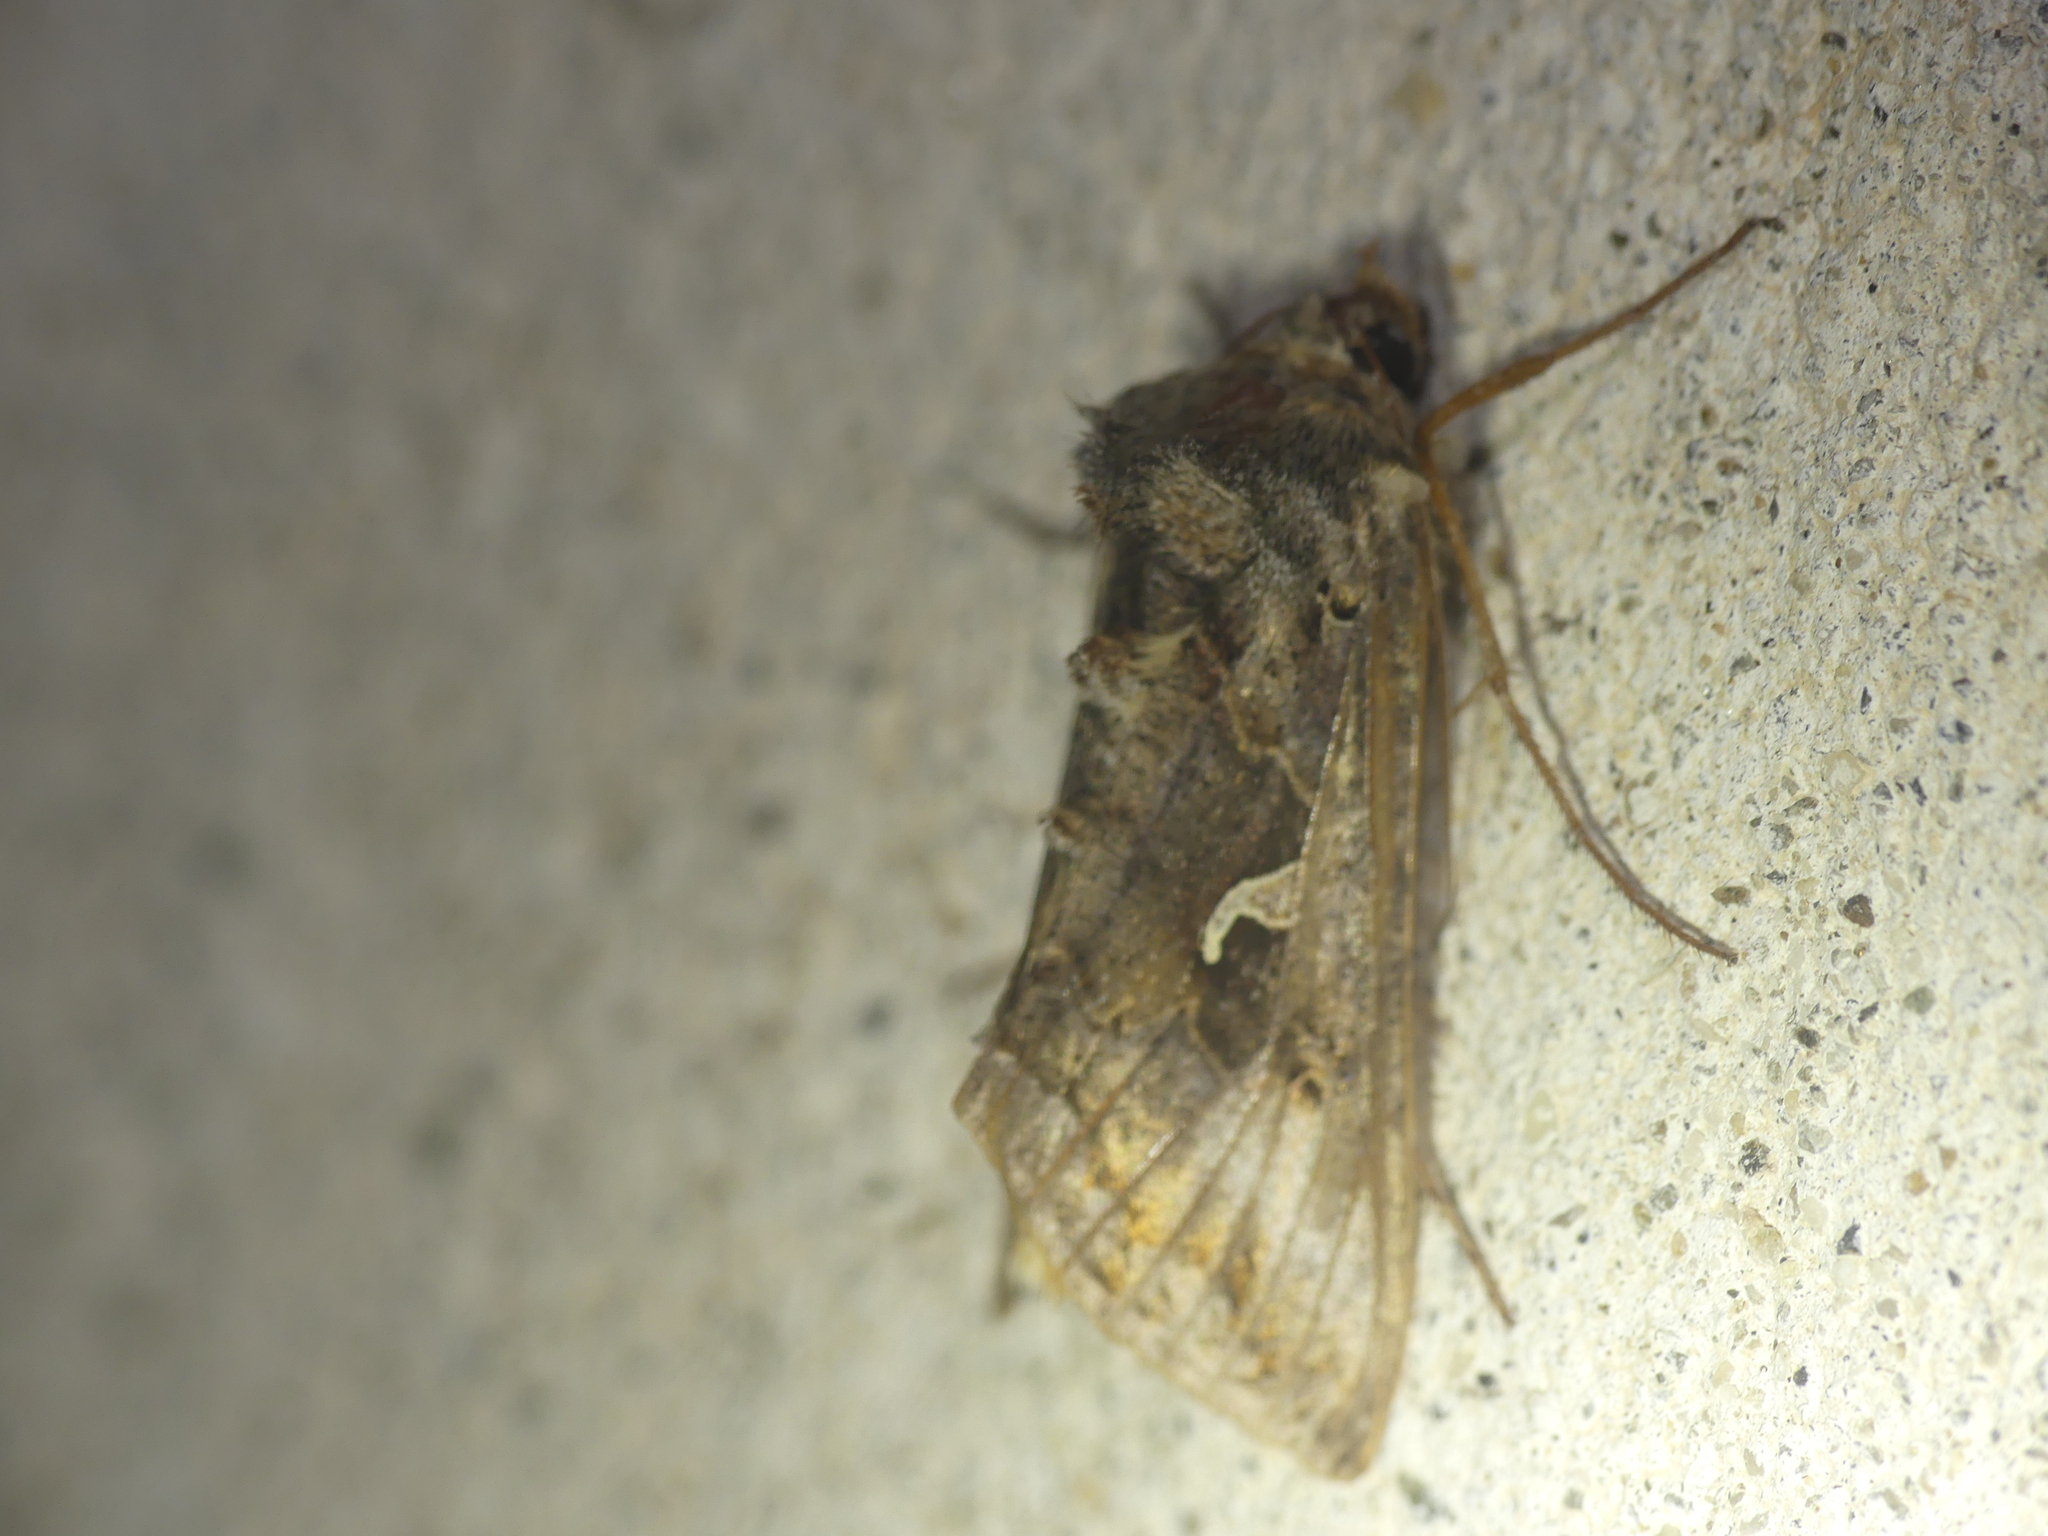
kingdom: Animalia
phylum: Arthropoda
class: Insecta
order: Lepidoptera
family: Noctuidae
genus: Autographa
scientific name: Autographa gamma
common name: Silver y
